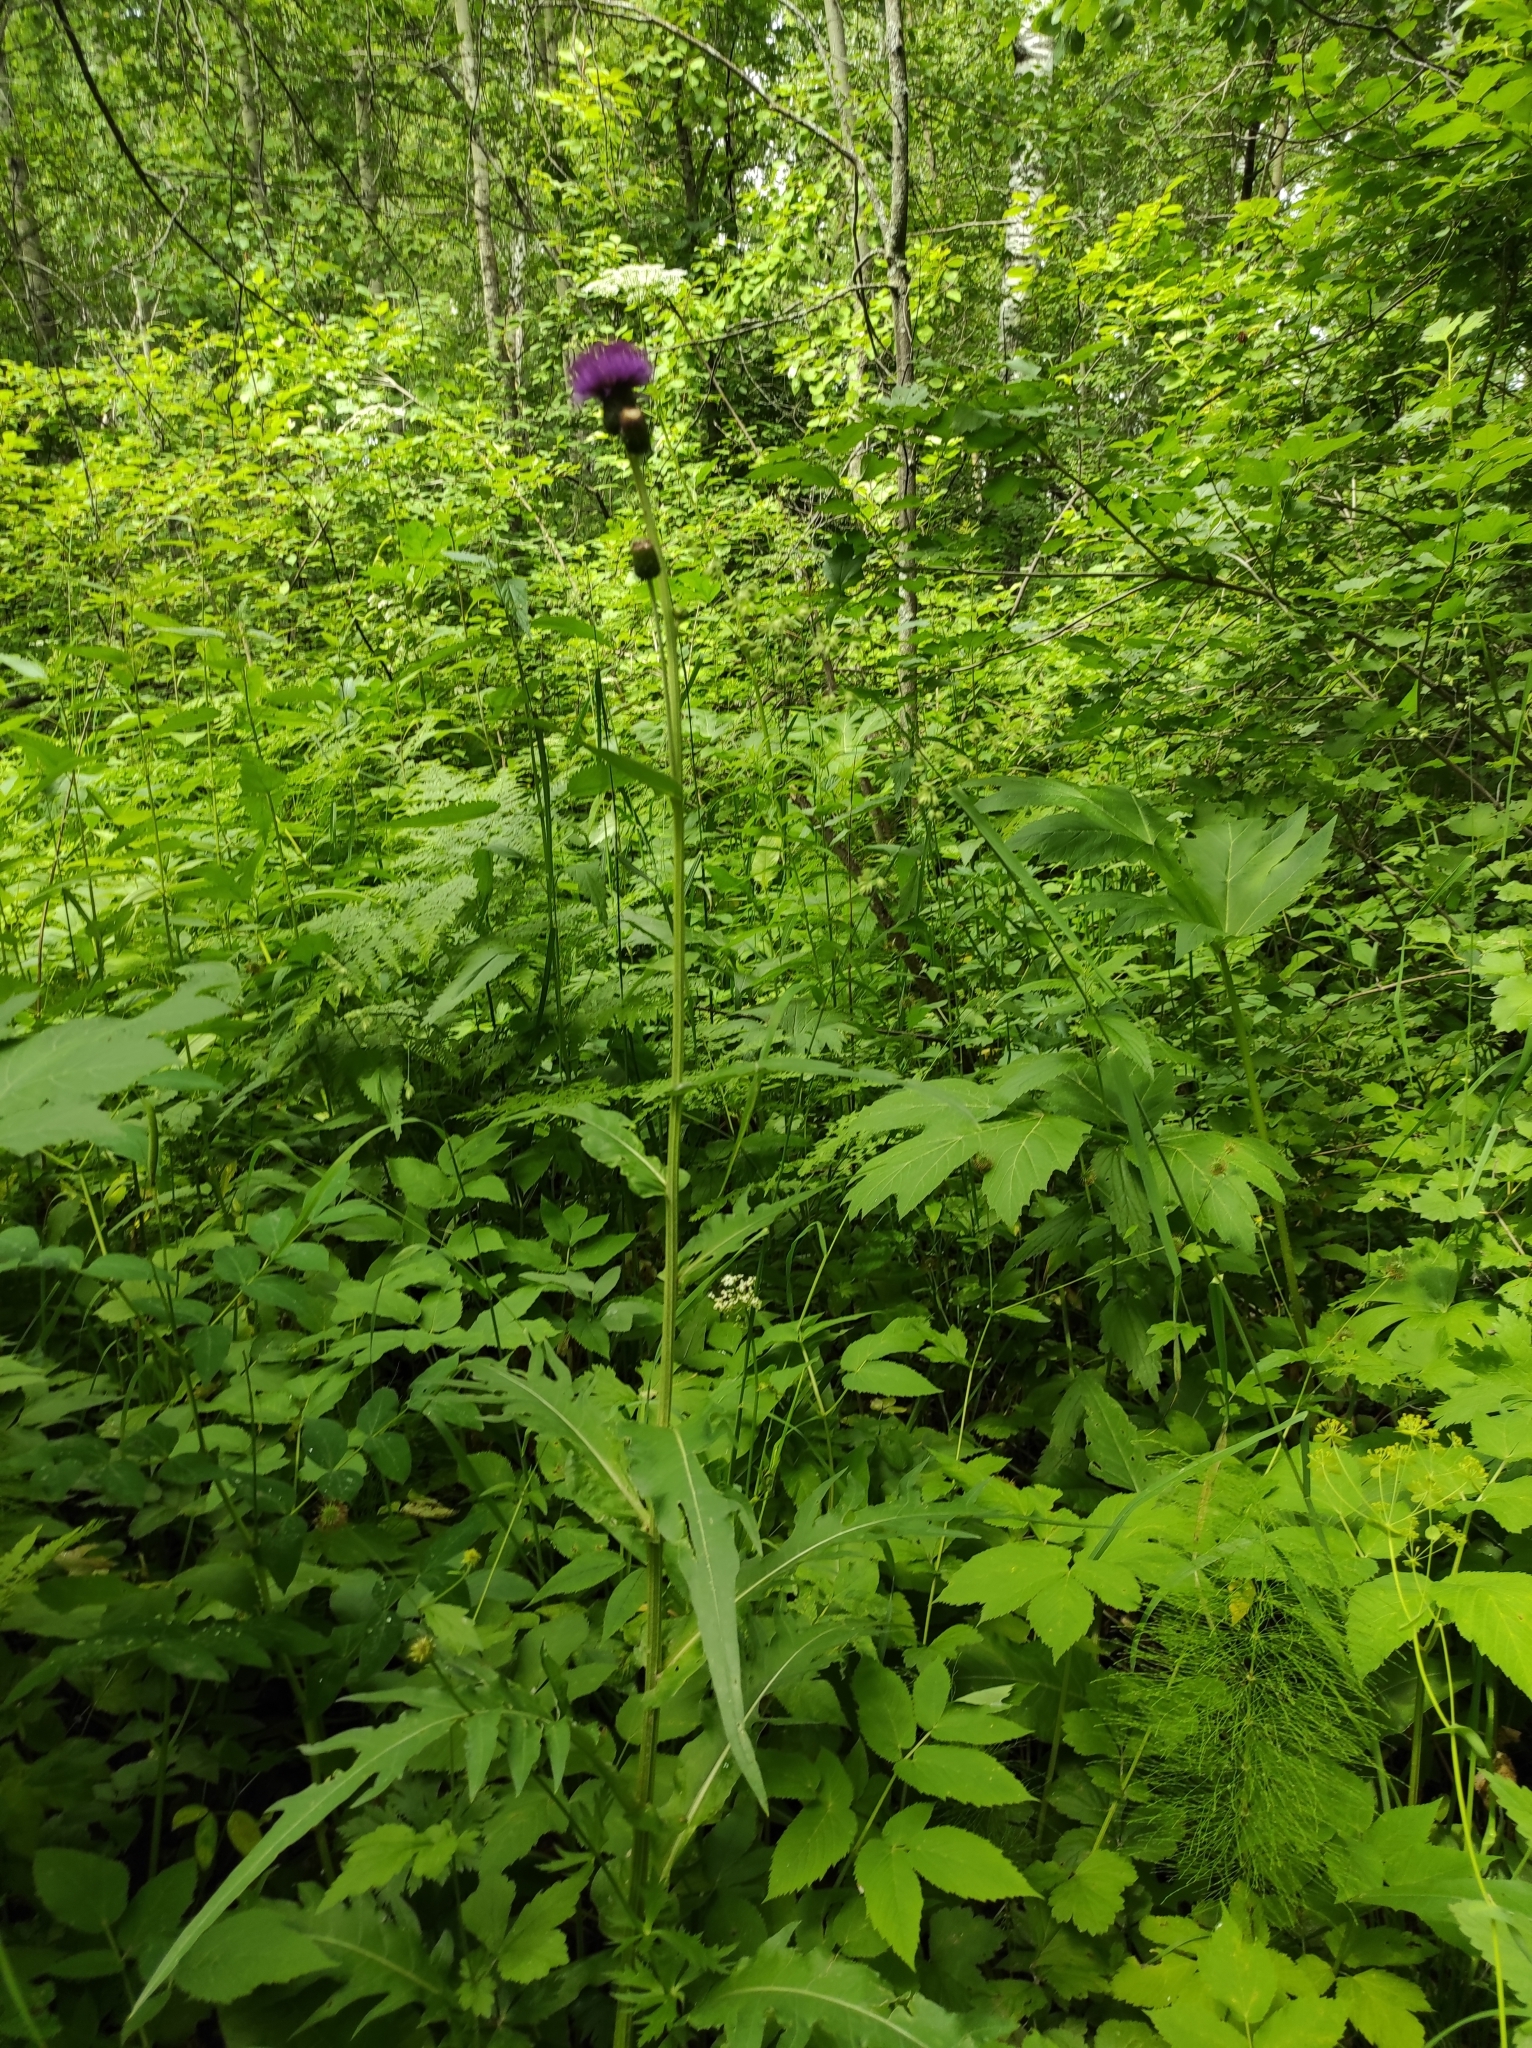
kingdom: Plantae
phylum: Tracheophyta
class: Magnoliopsida
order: Asterales
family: Asteraceae
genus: Cirsium
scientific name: Cirsium heterophyllum
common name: Melancholy thistle
